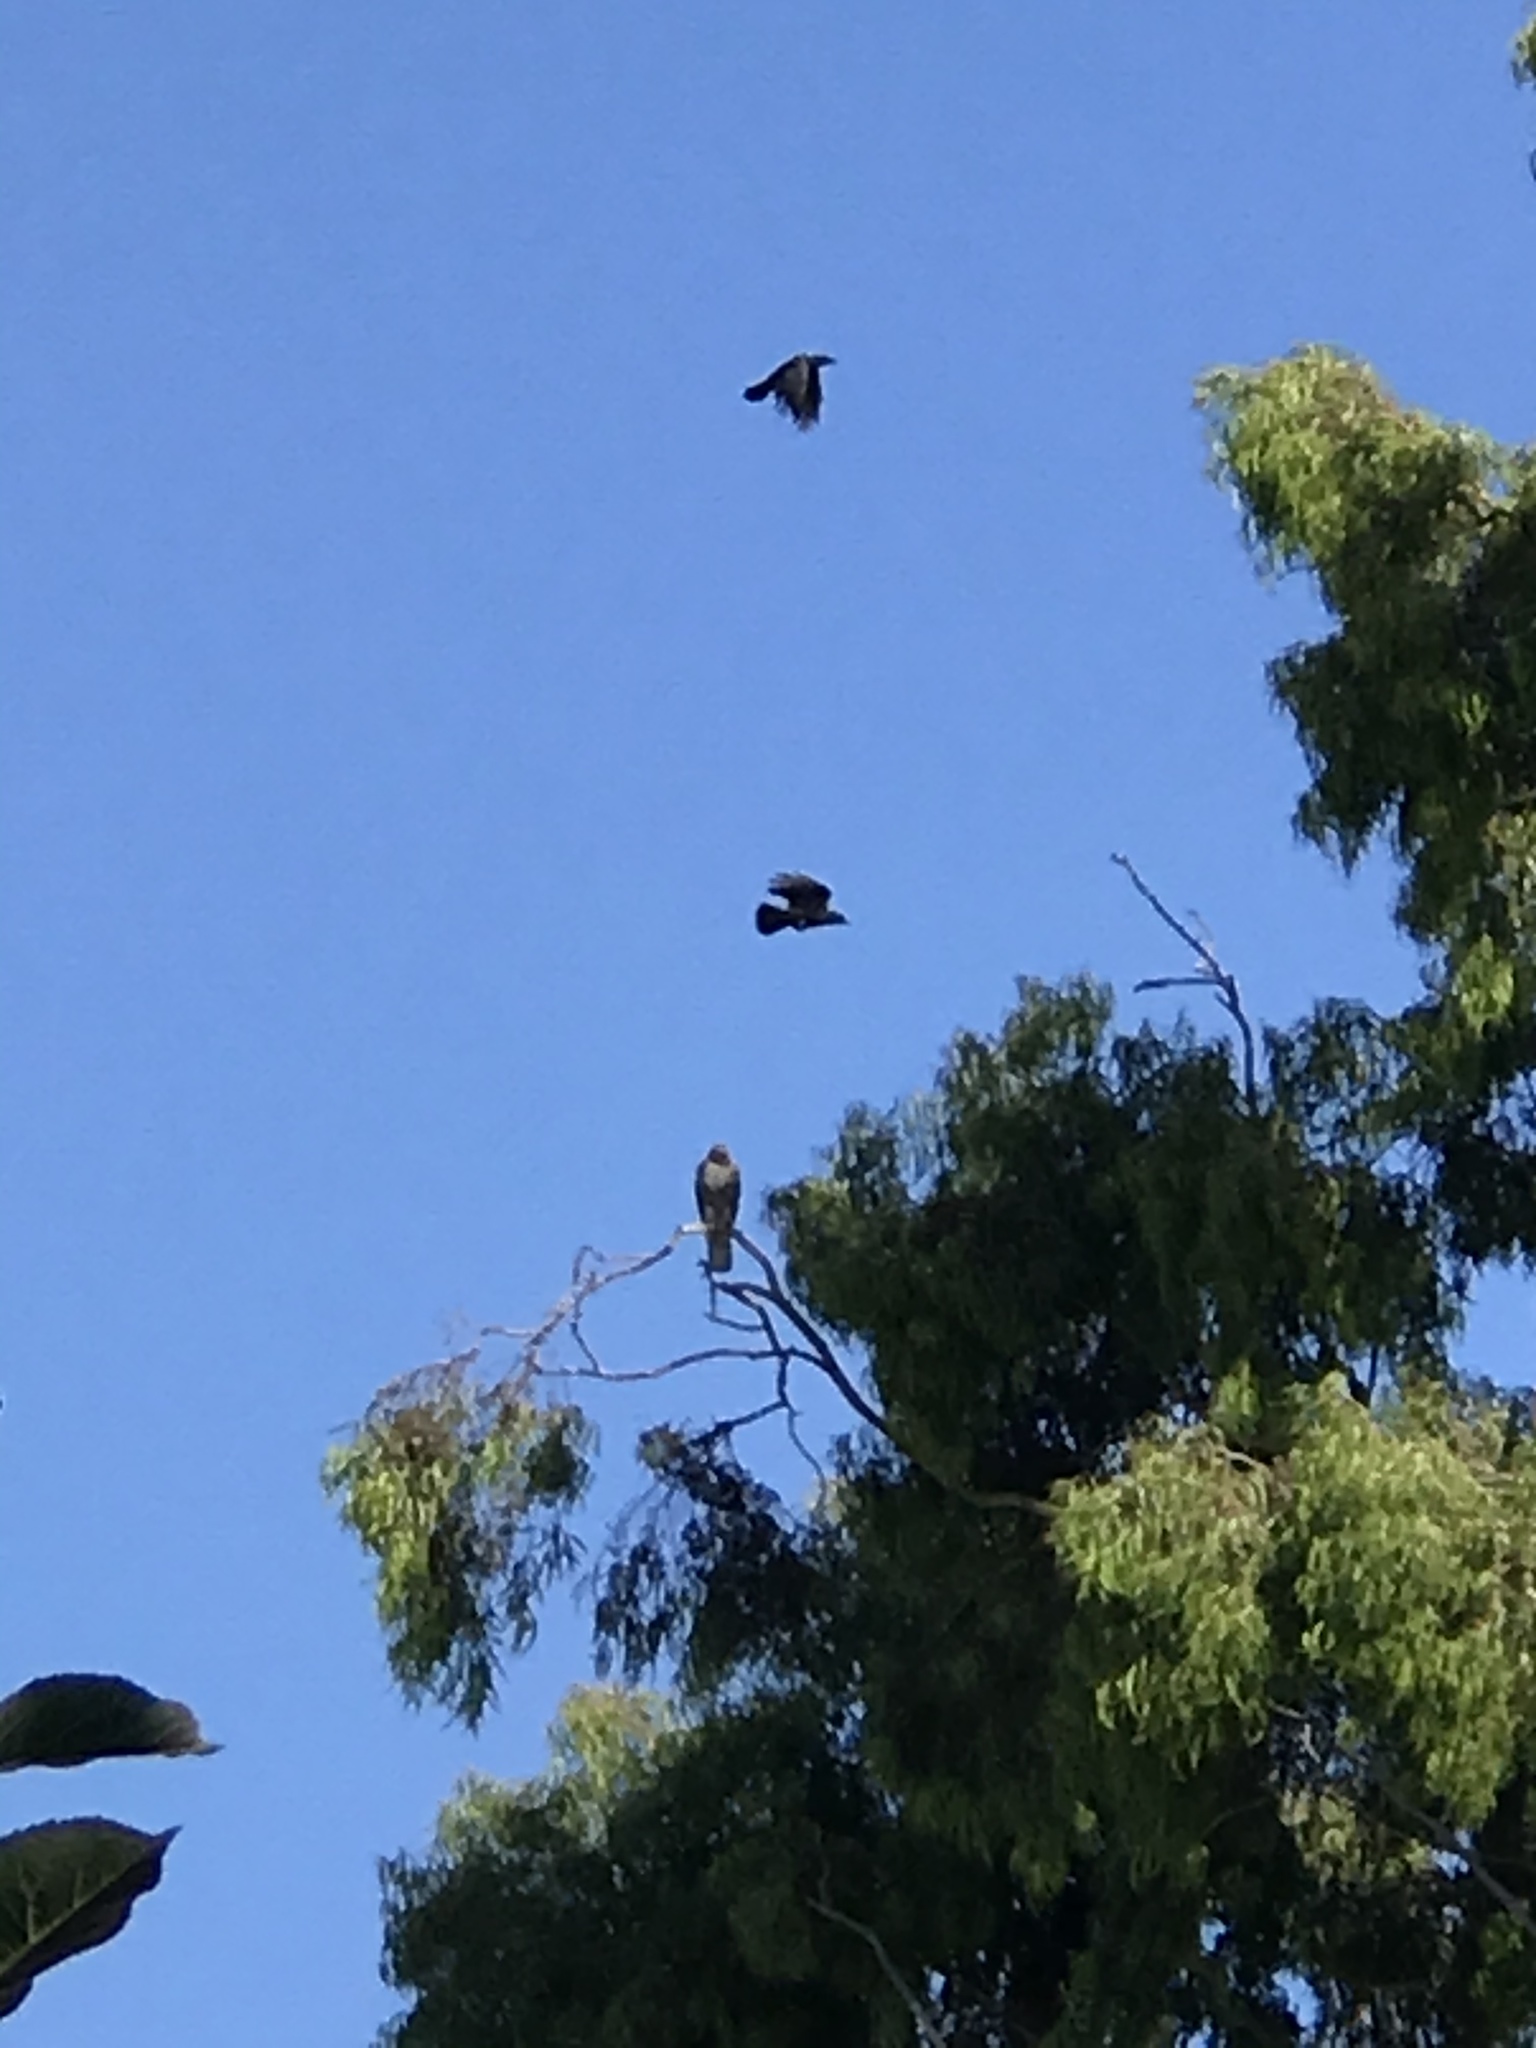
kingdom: Animalia
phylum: Chordata
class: Aves
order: Accipitriformes
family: Accipitridae
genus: Buteo
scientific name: Buteo jamaicensis
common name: Red-tailed hawk
